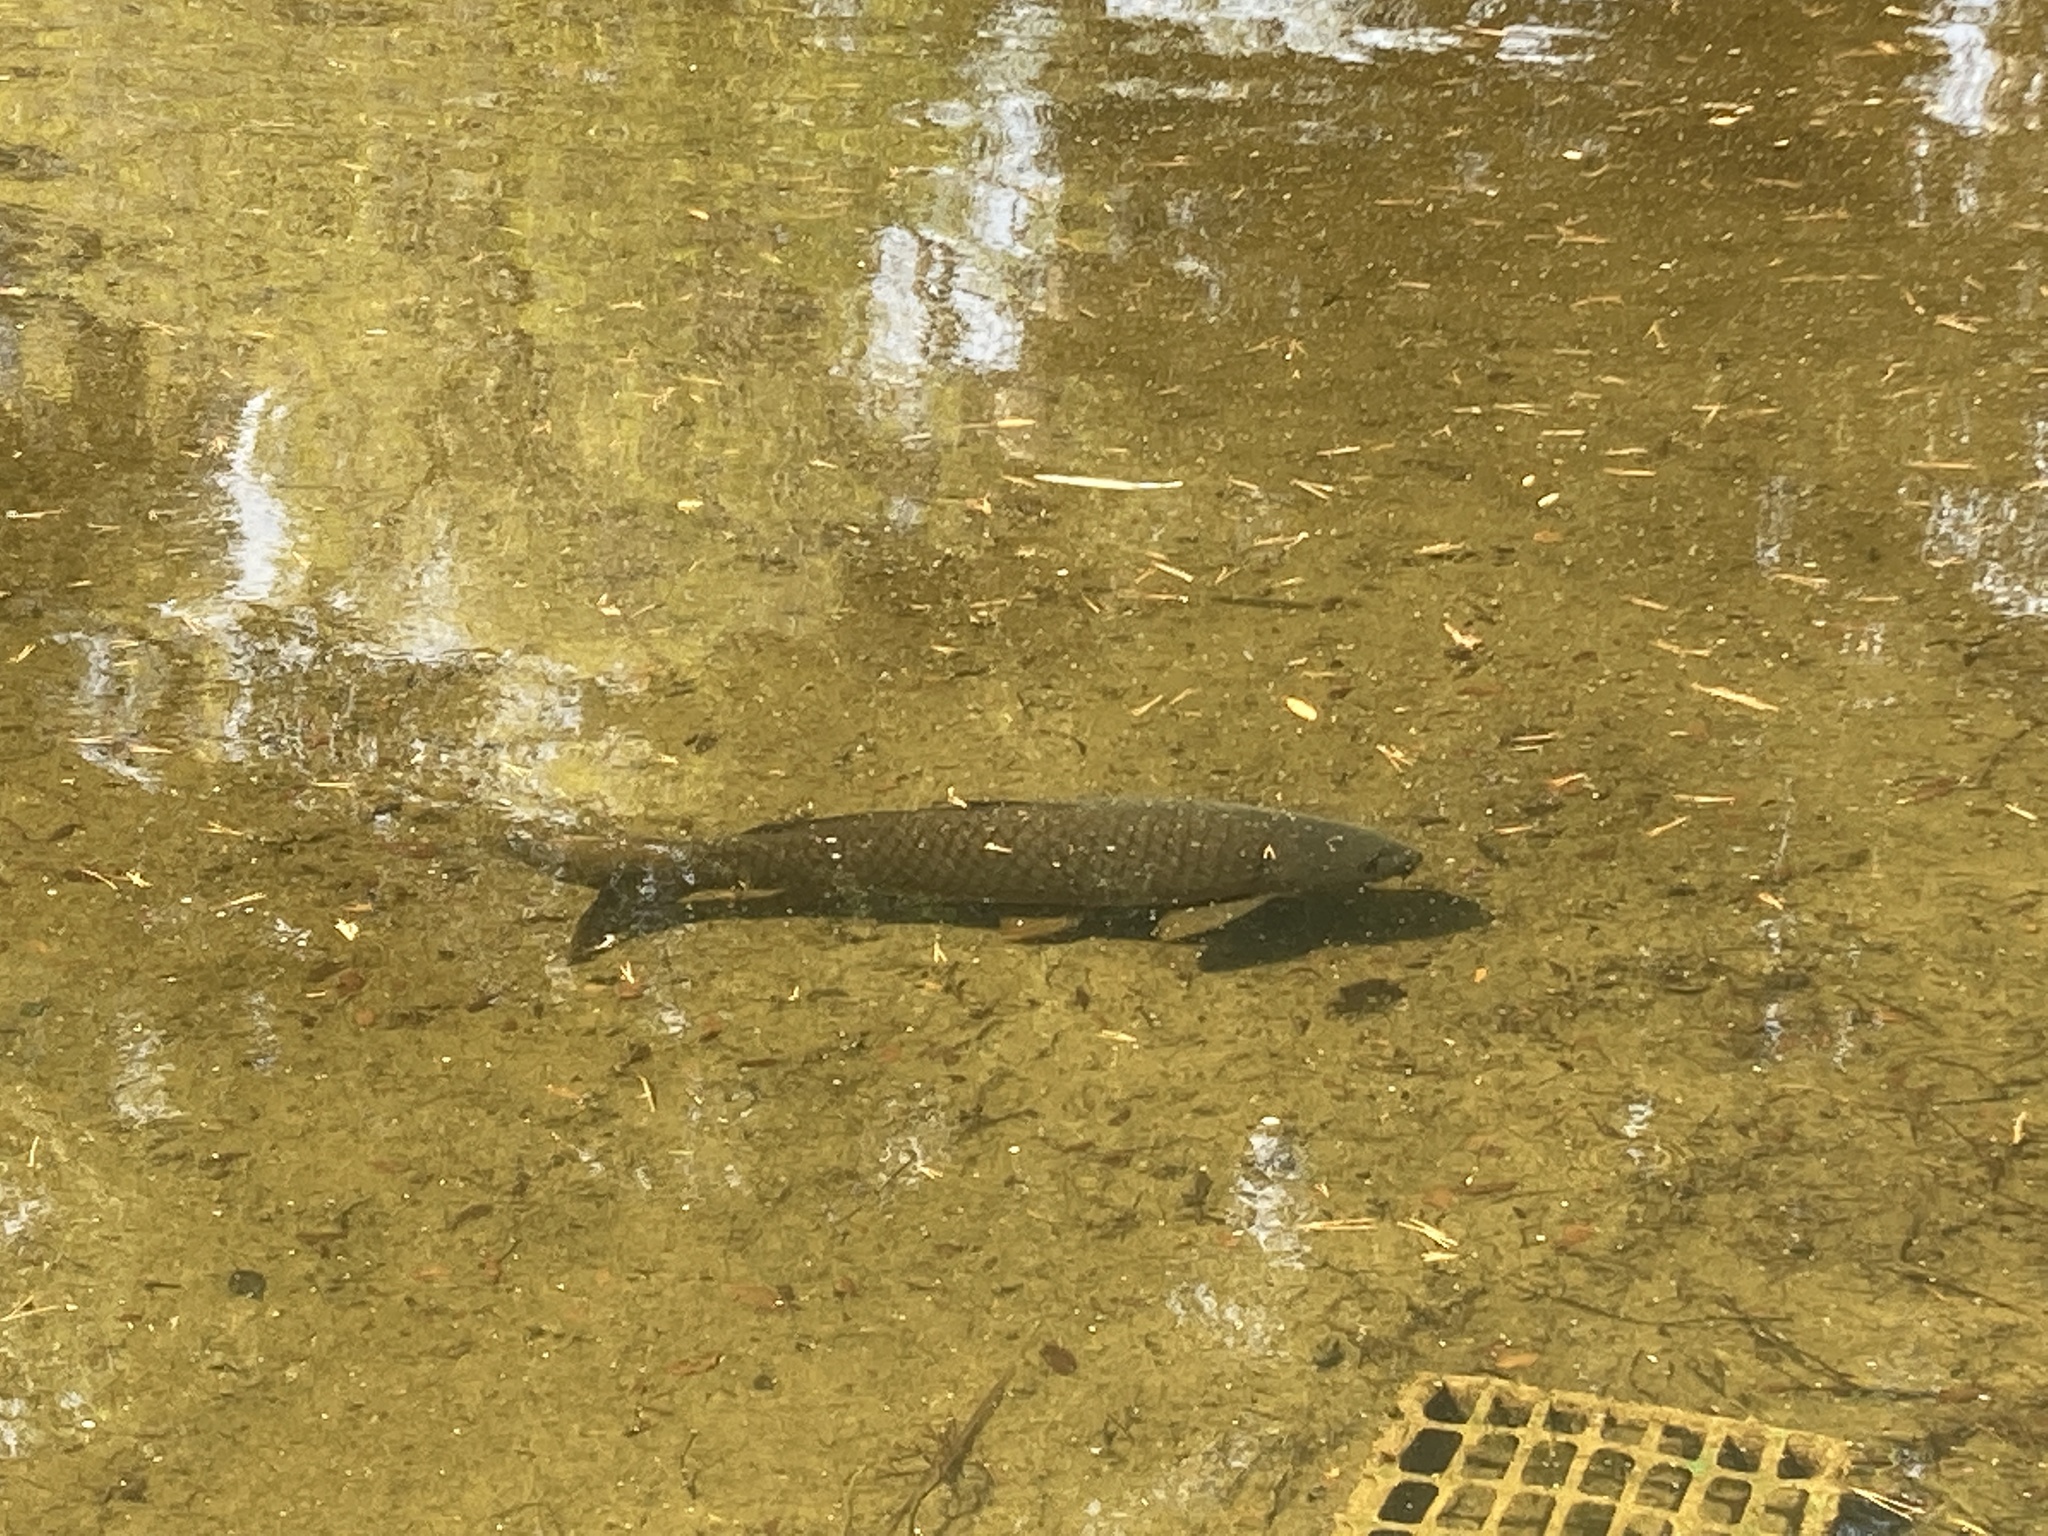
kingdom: Animalia
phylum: Chordata
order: Cypriniformes
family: Cyprinidae
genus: Cyprinus
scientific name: Cyprinus carpio
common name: Common carp
